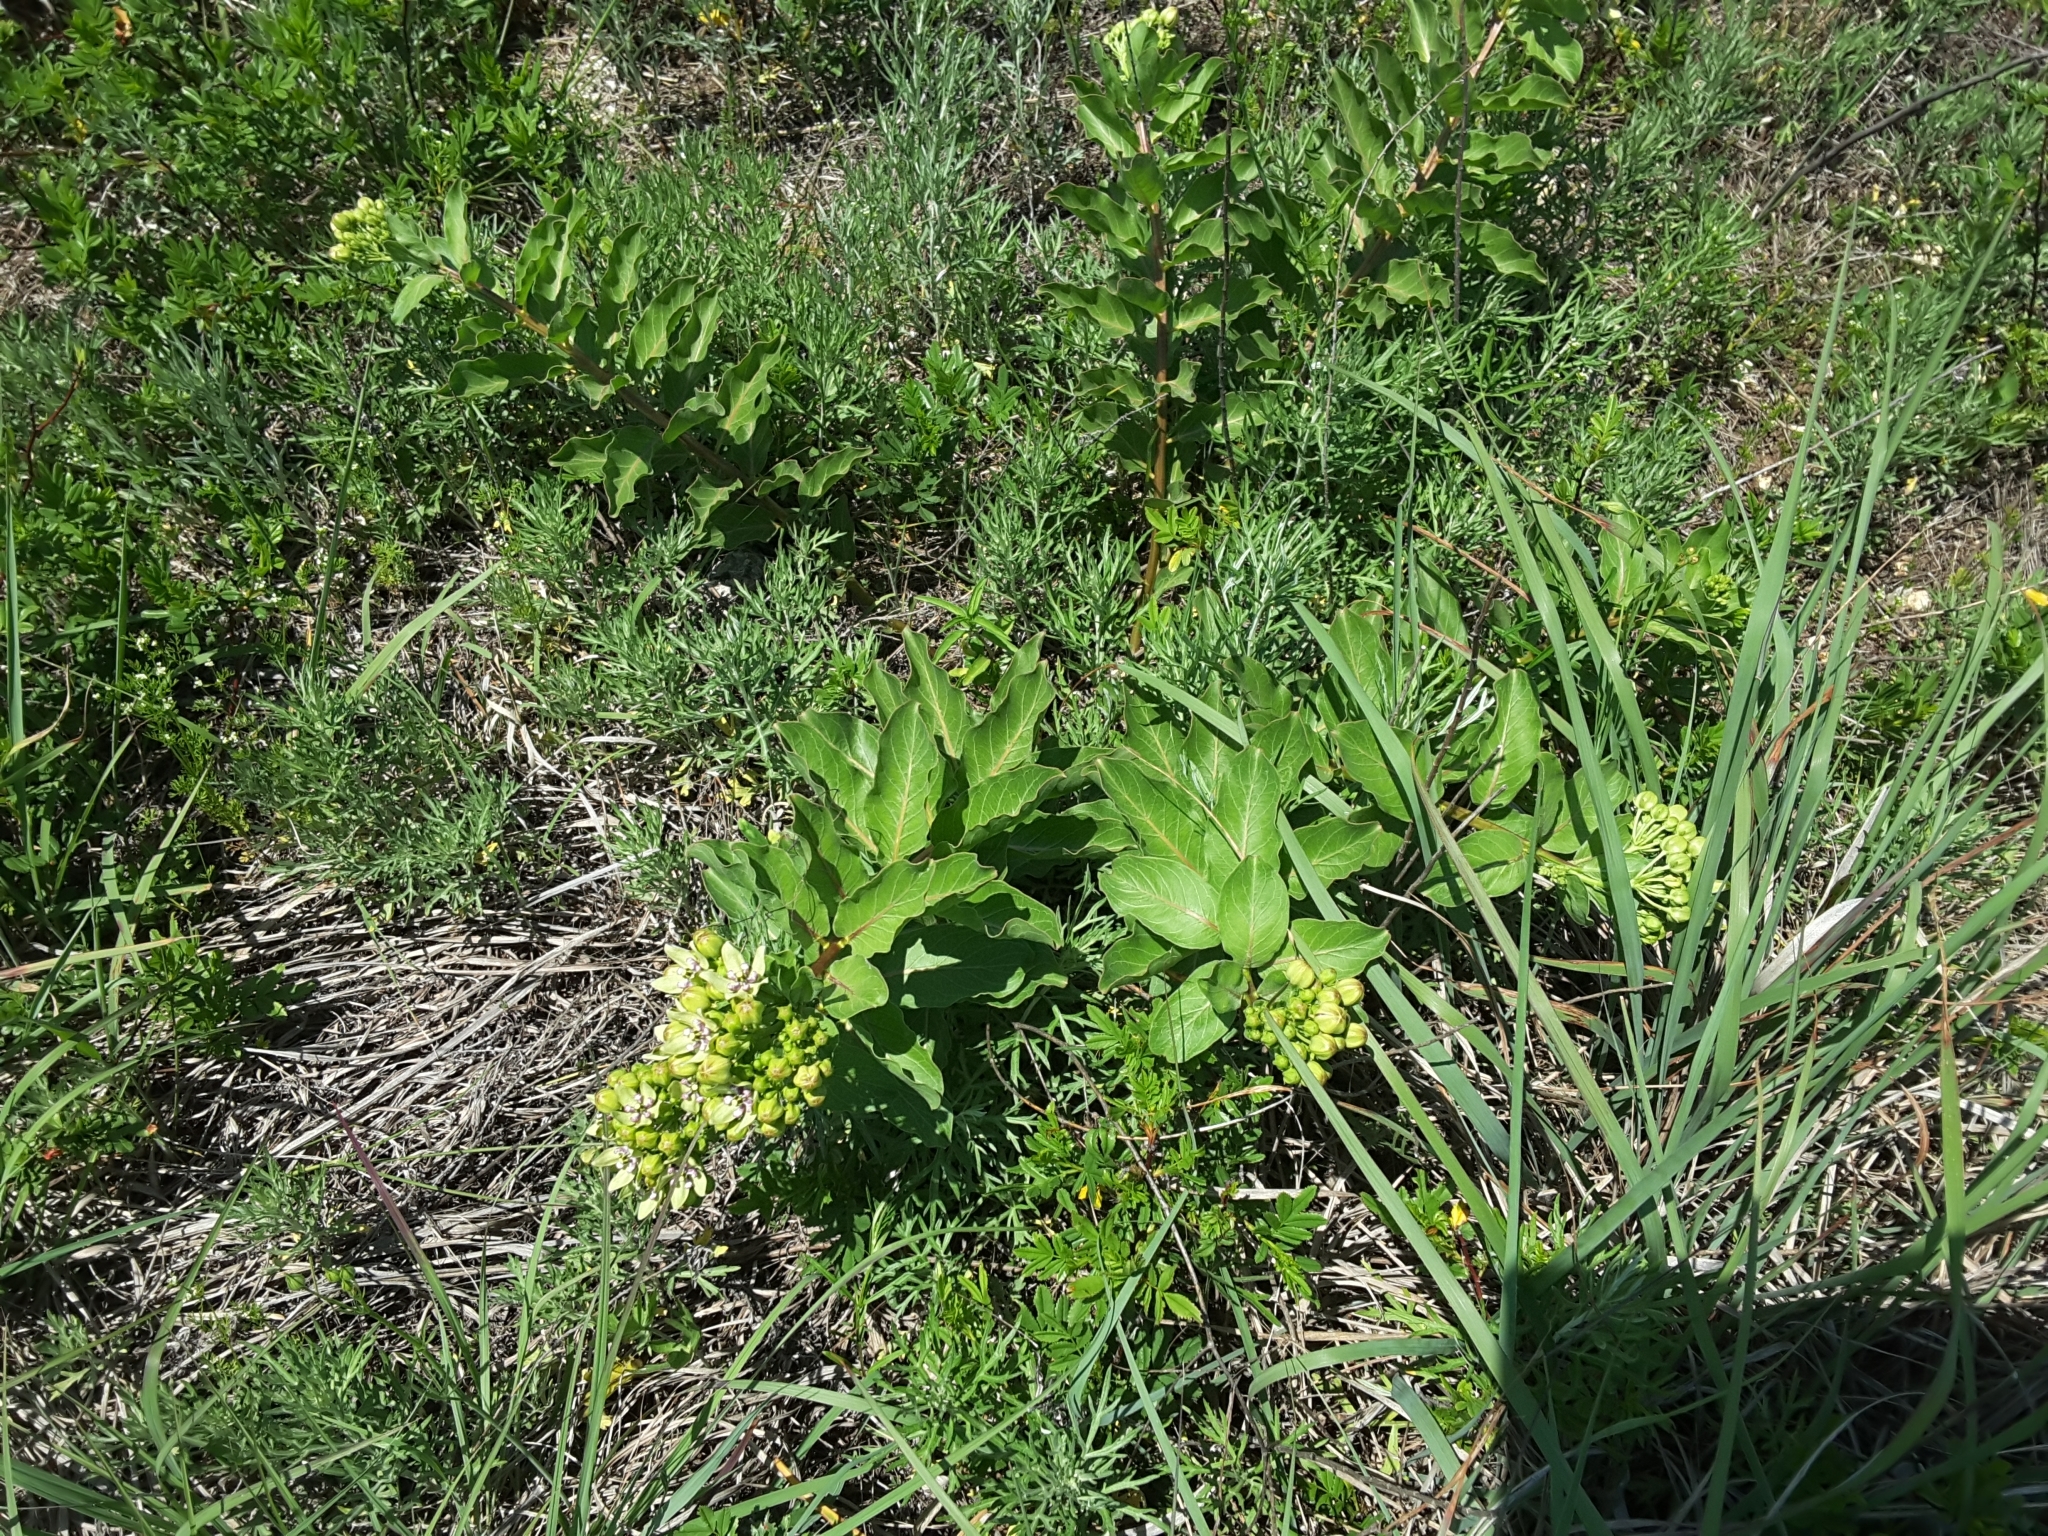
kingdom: Plantae
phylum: Tracheophyta
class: Magnoliopsida
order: Gentianales
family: Apocynaceae
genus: Asclepias
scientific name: Asclepias viridis
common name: Antelope-horns
